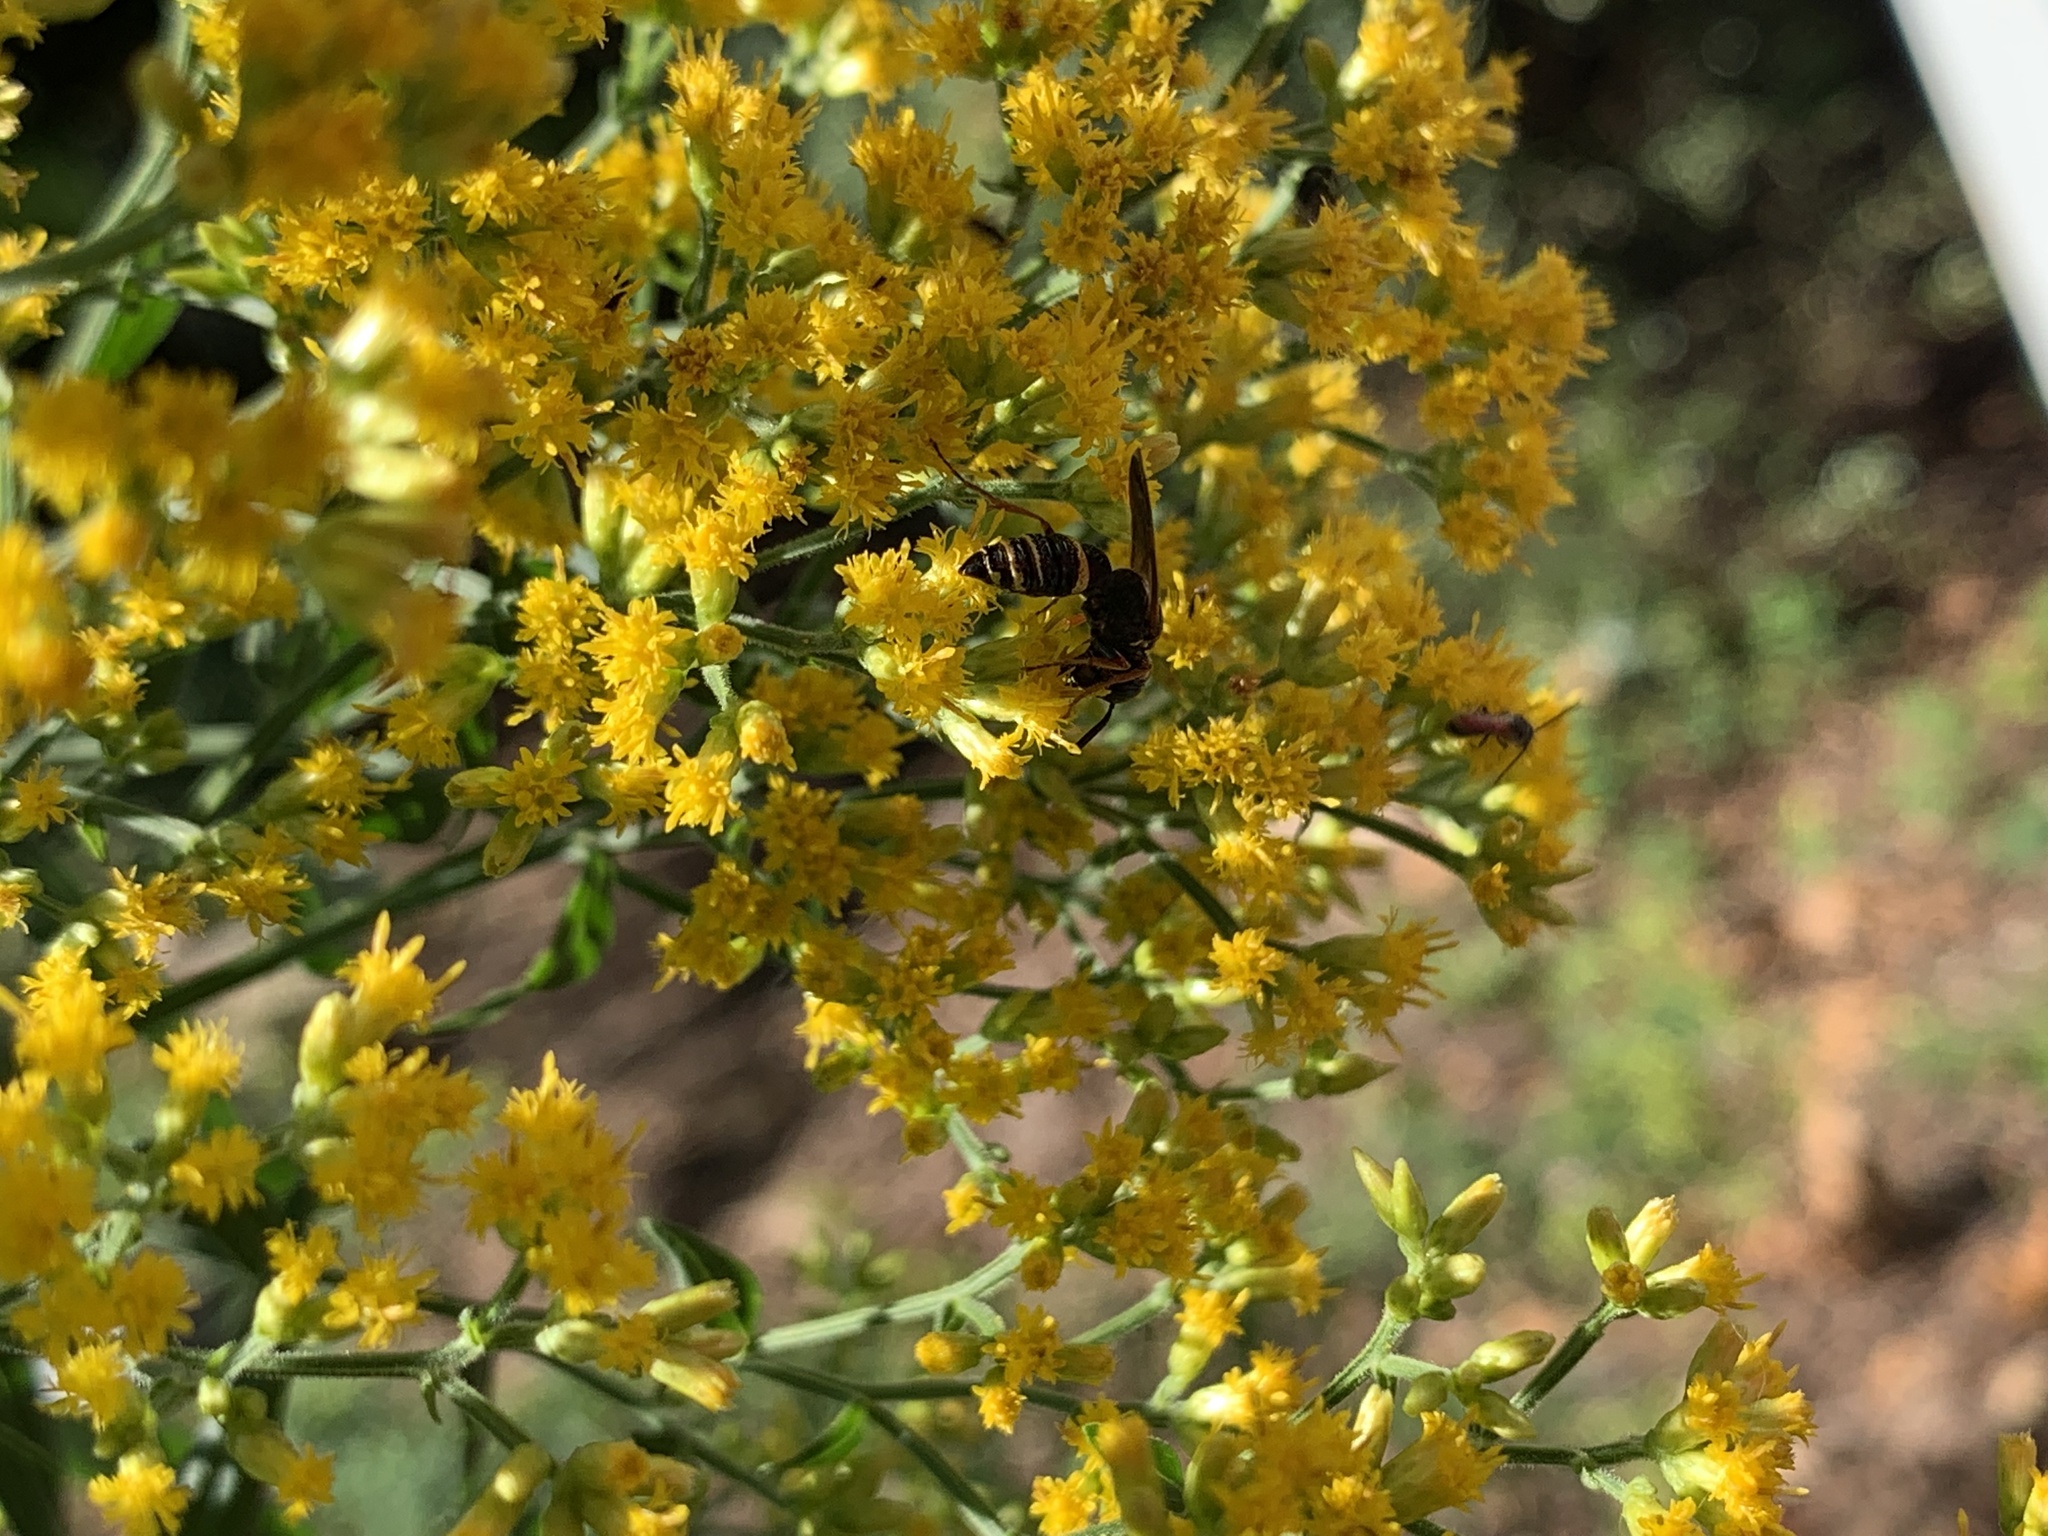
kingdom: Animalia
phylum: Arthropoda
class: Insecta
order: Hymenoptera
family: Crabronidae
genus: Philanthus
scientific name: Philanthus gibbosus
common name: Humped beewolf
